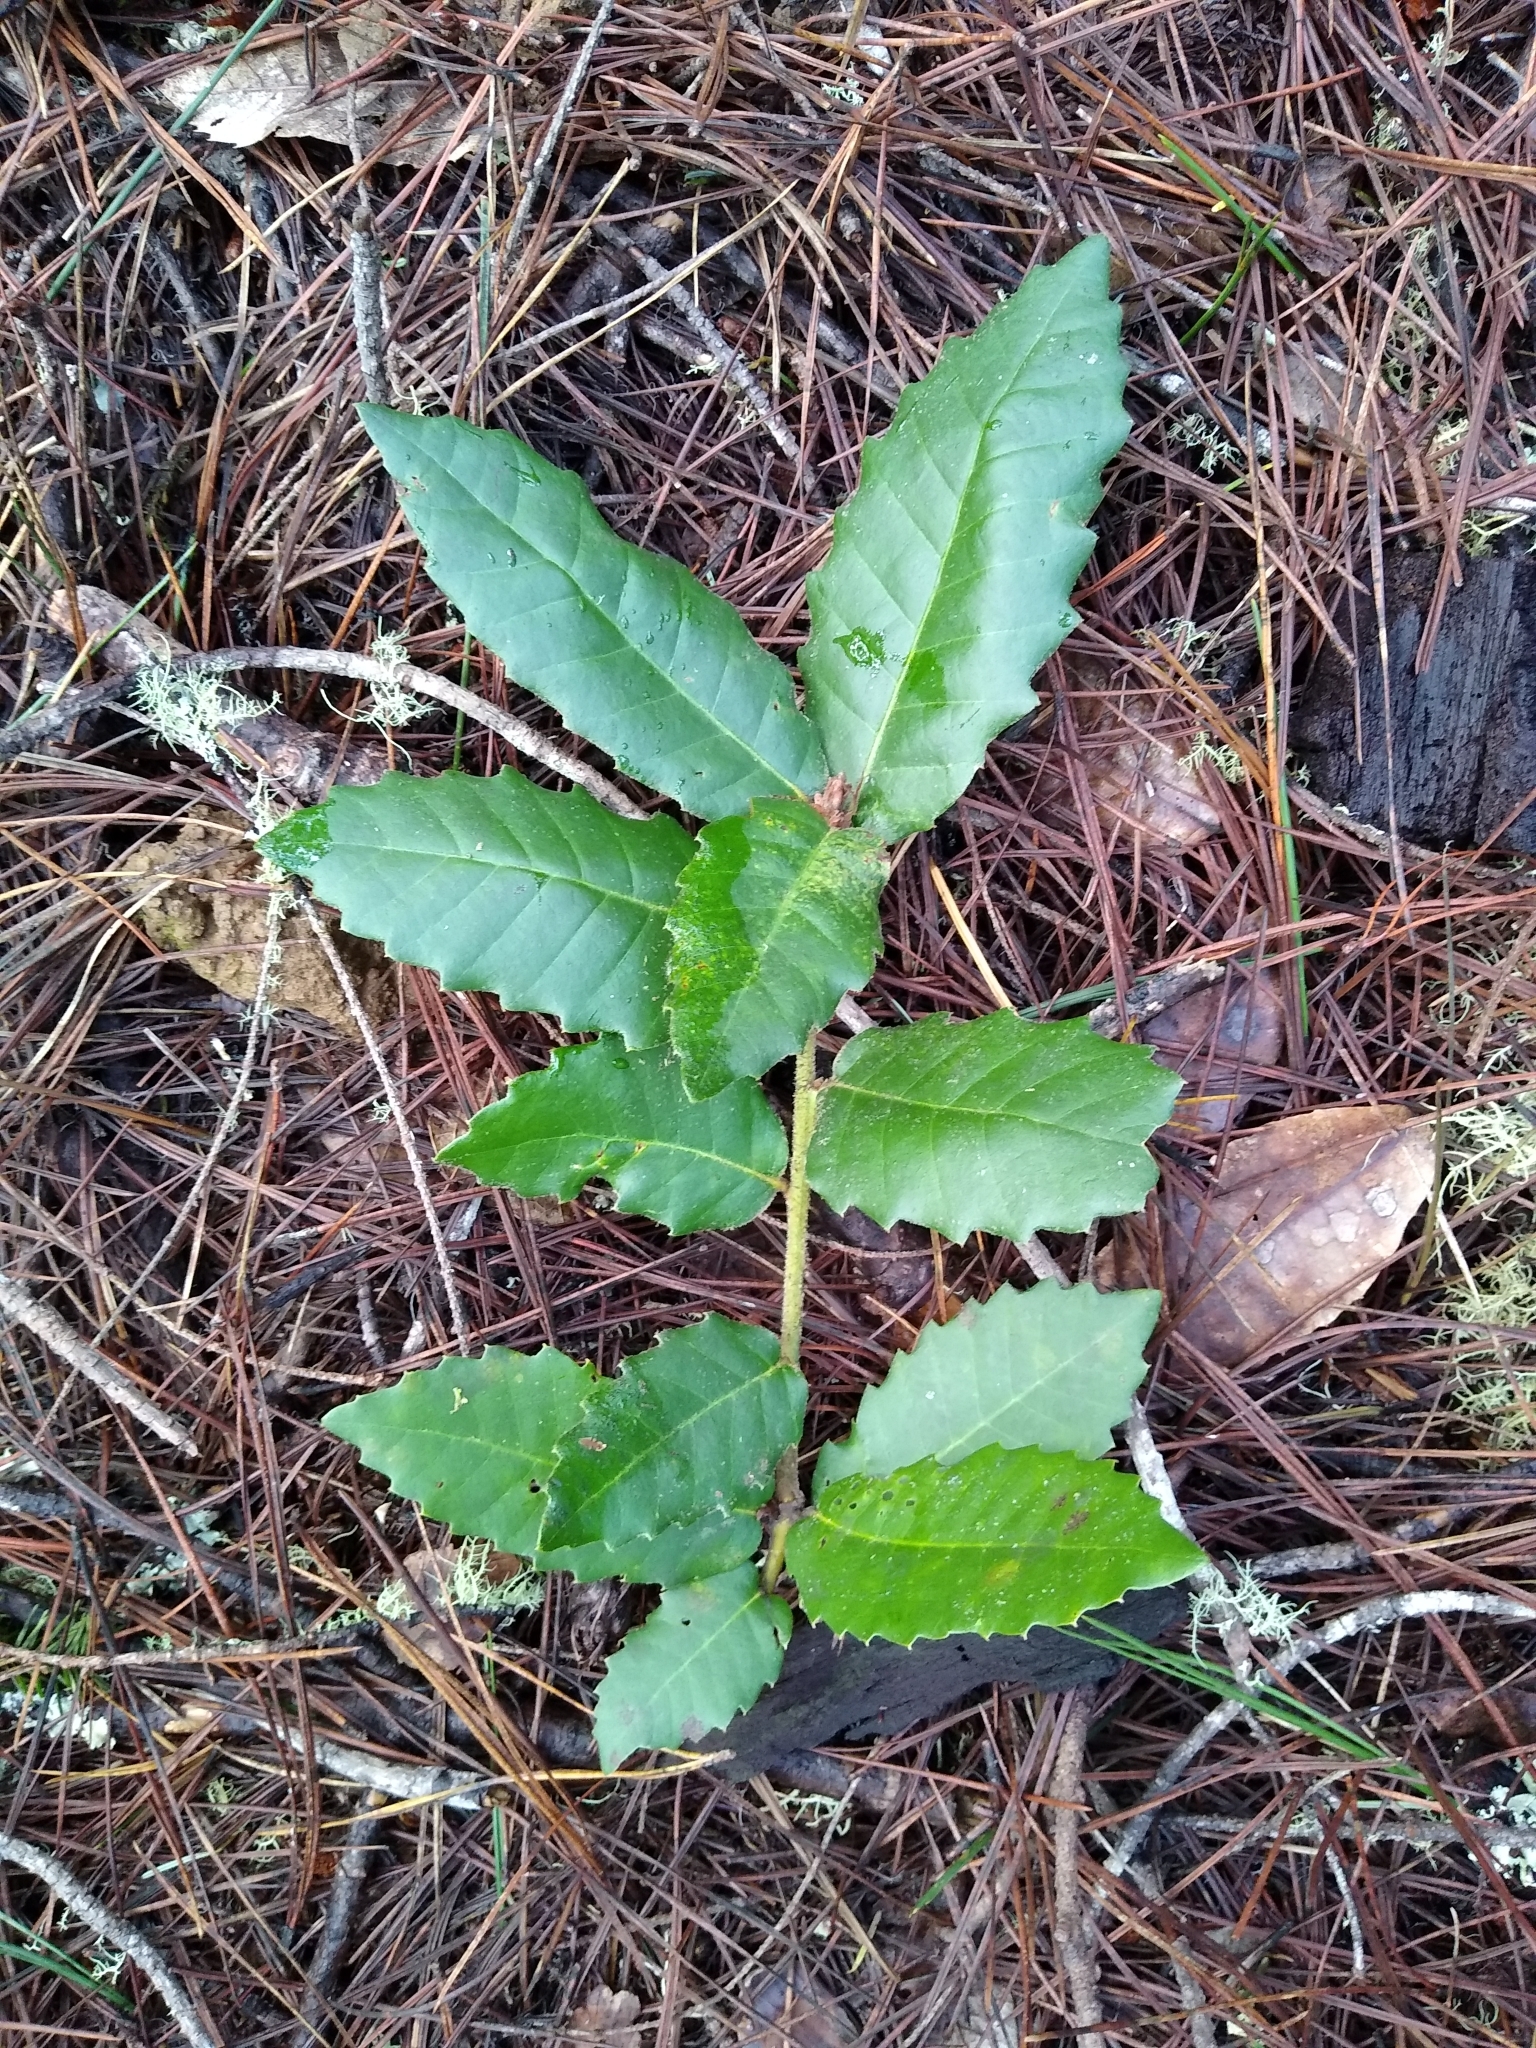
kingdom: Plantae
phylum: Tracheophyta
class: Magnoliopsida
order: Fagales
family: Fagaceae
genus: Notholithocarpus
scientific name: Notholithocarpus densiflorus
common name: Tan bark oak
